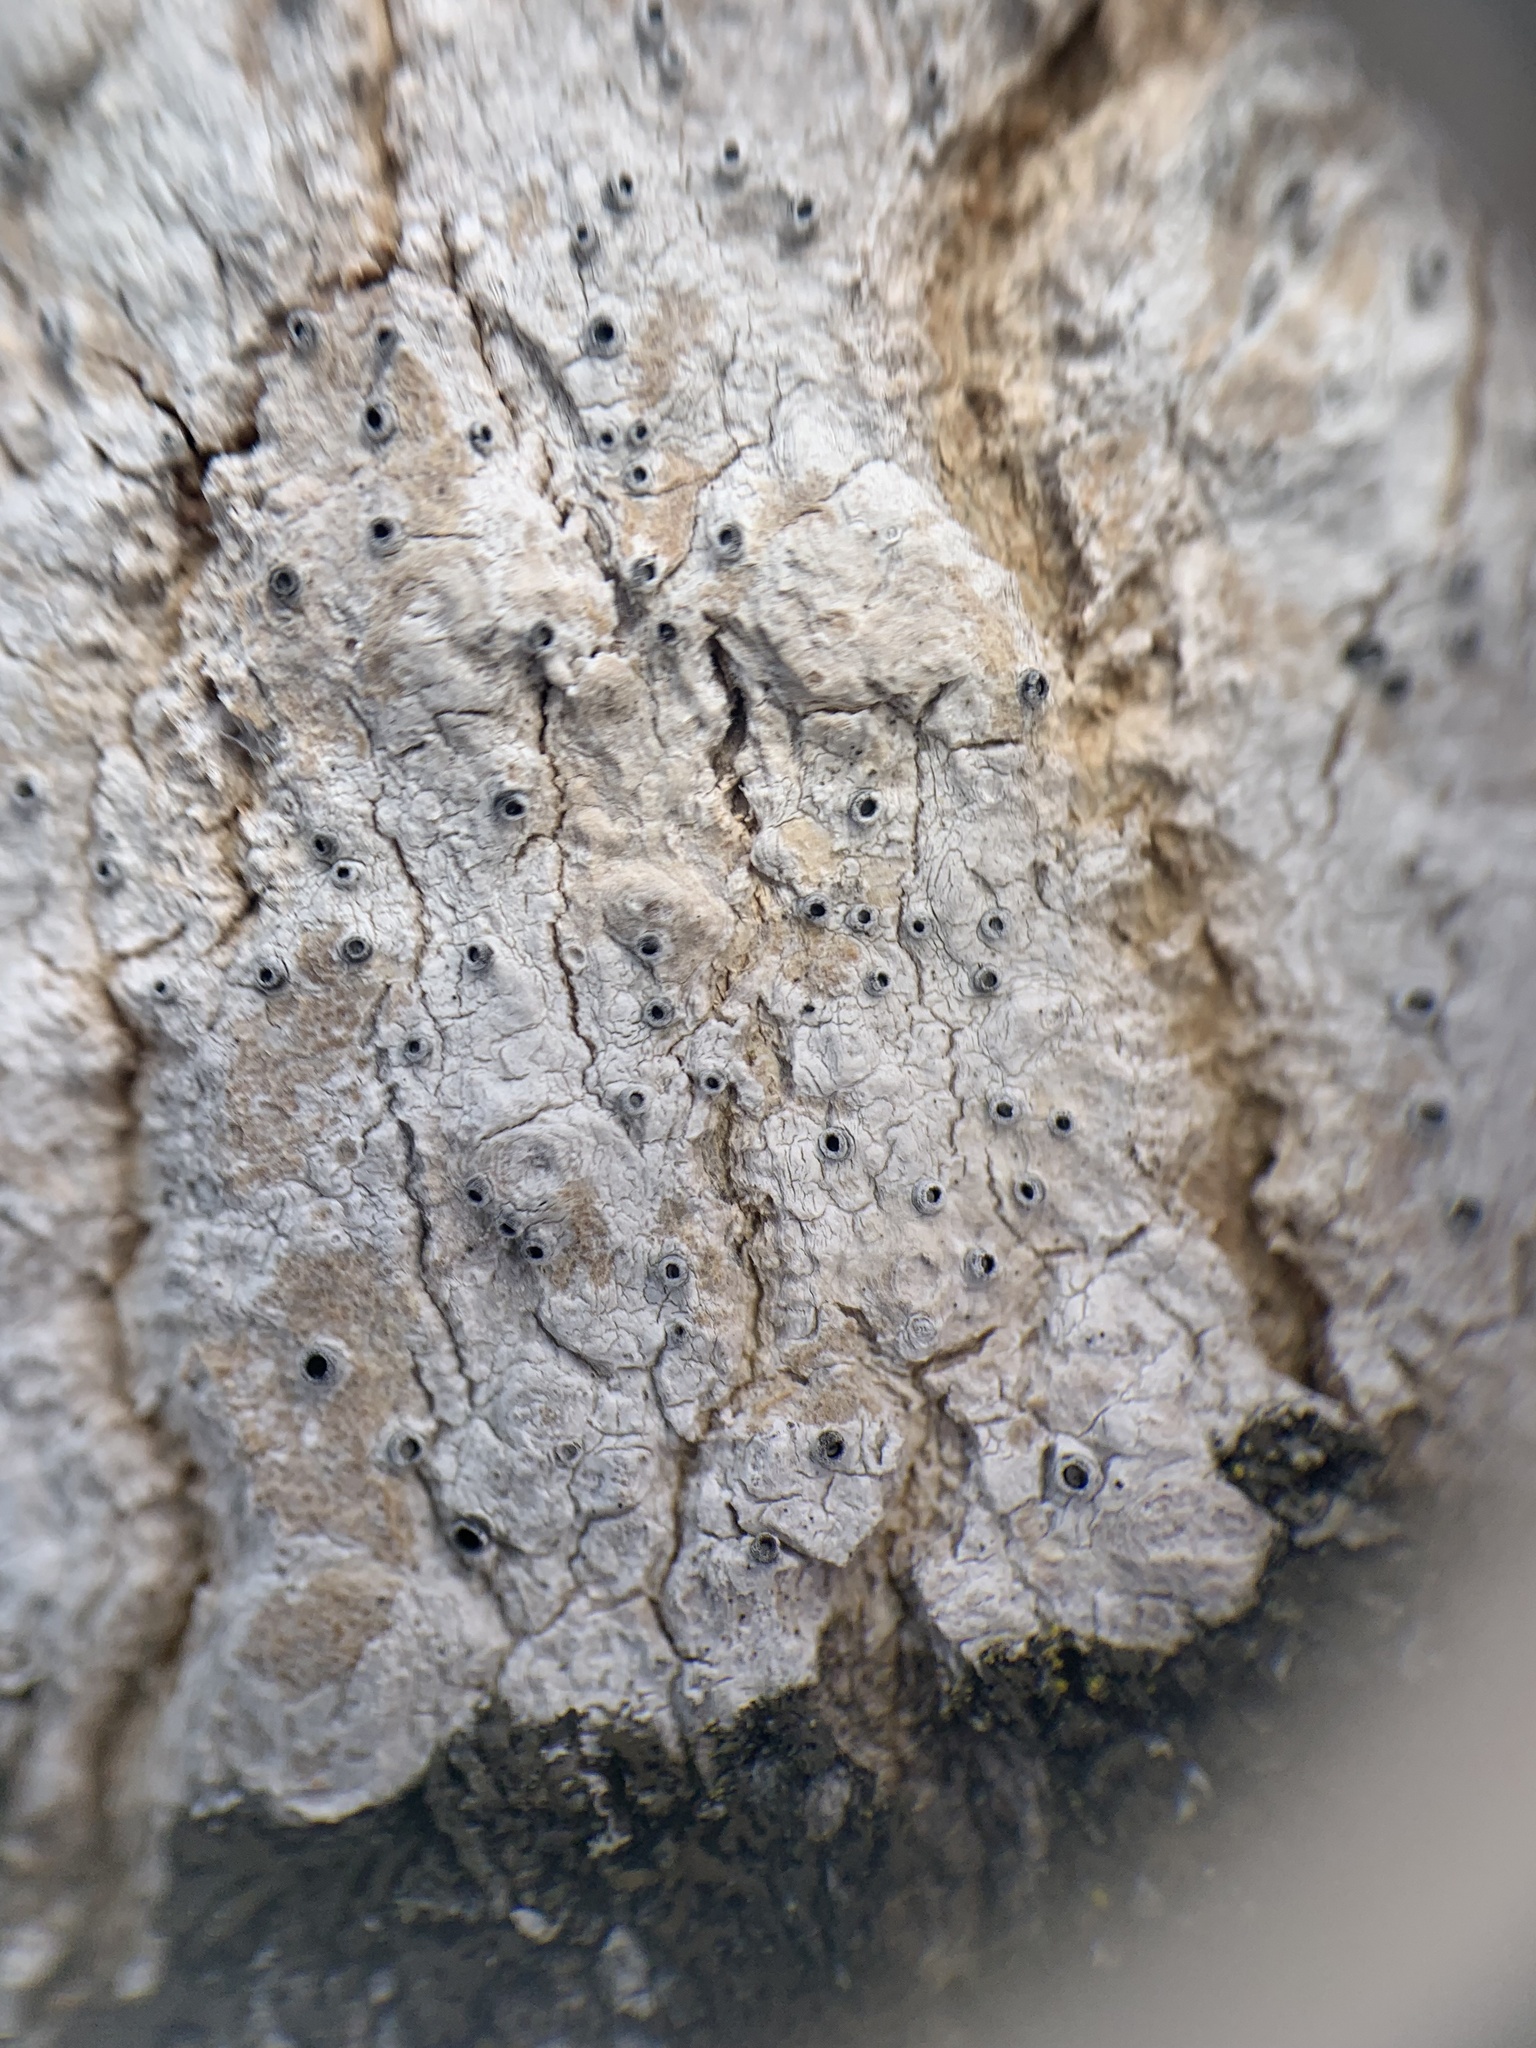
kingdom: Fungi
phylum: Ascomycota
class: Lecanoromycetes
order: Ostropales
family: Stictidaceae
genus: Stictis
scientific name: Stictis urceolata
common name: Can-of-worms lichen
